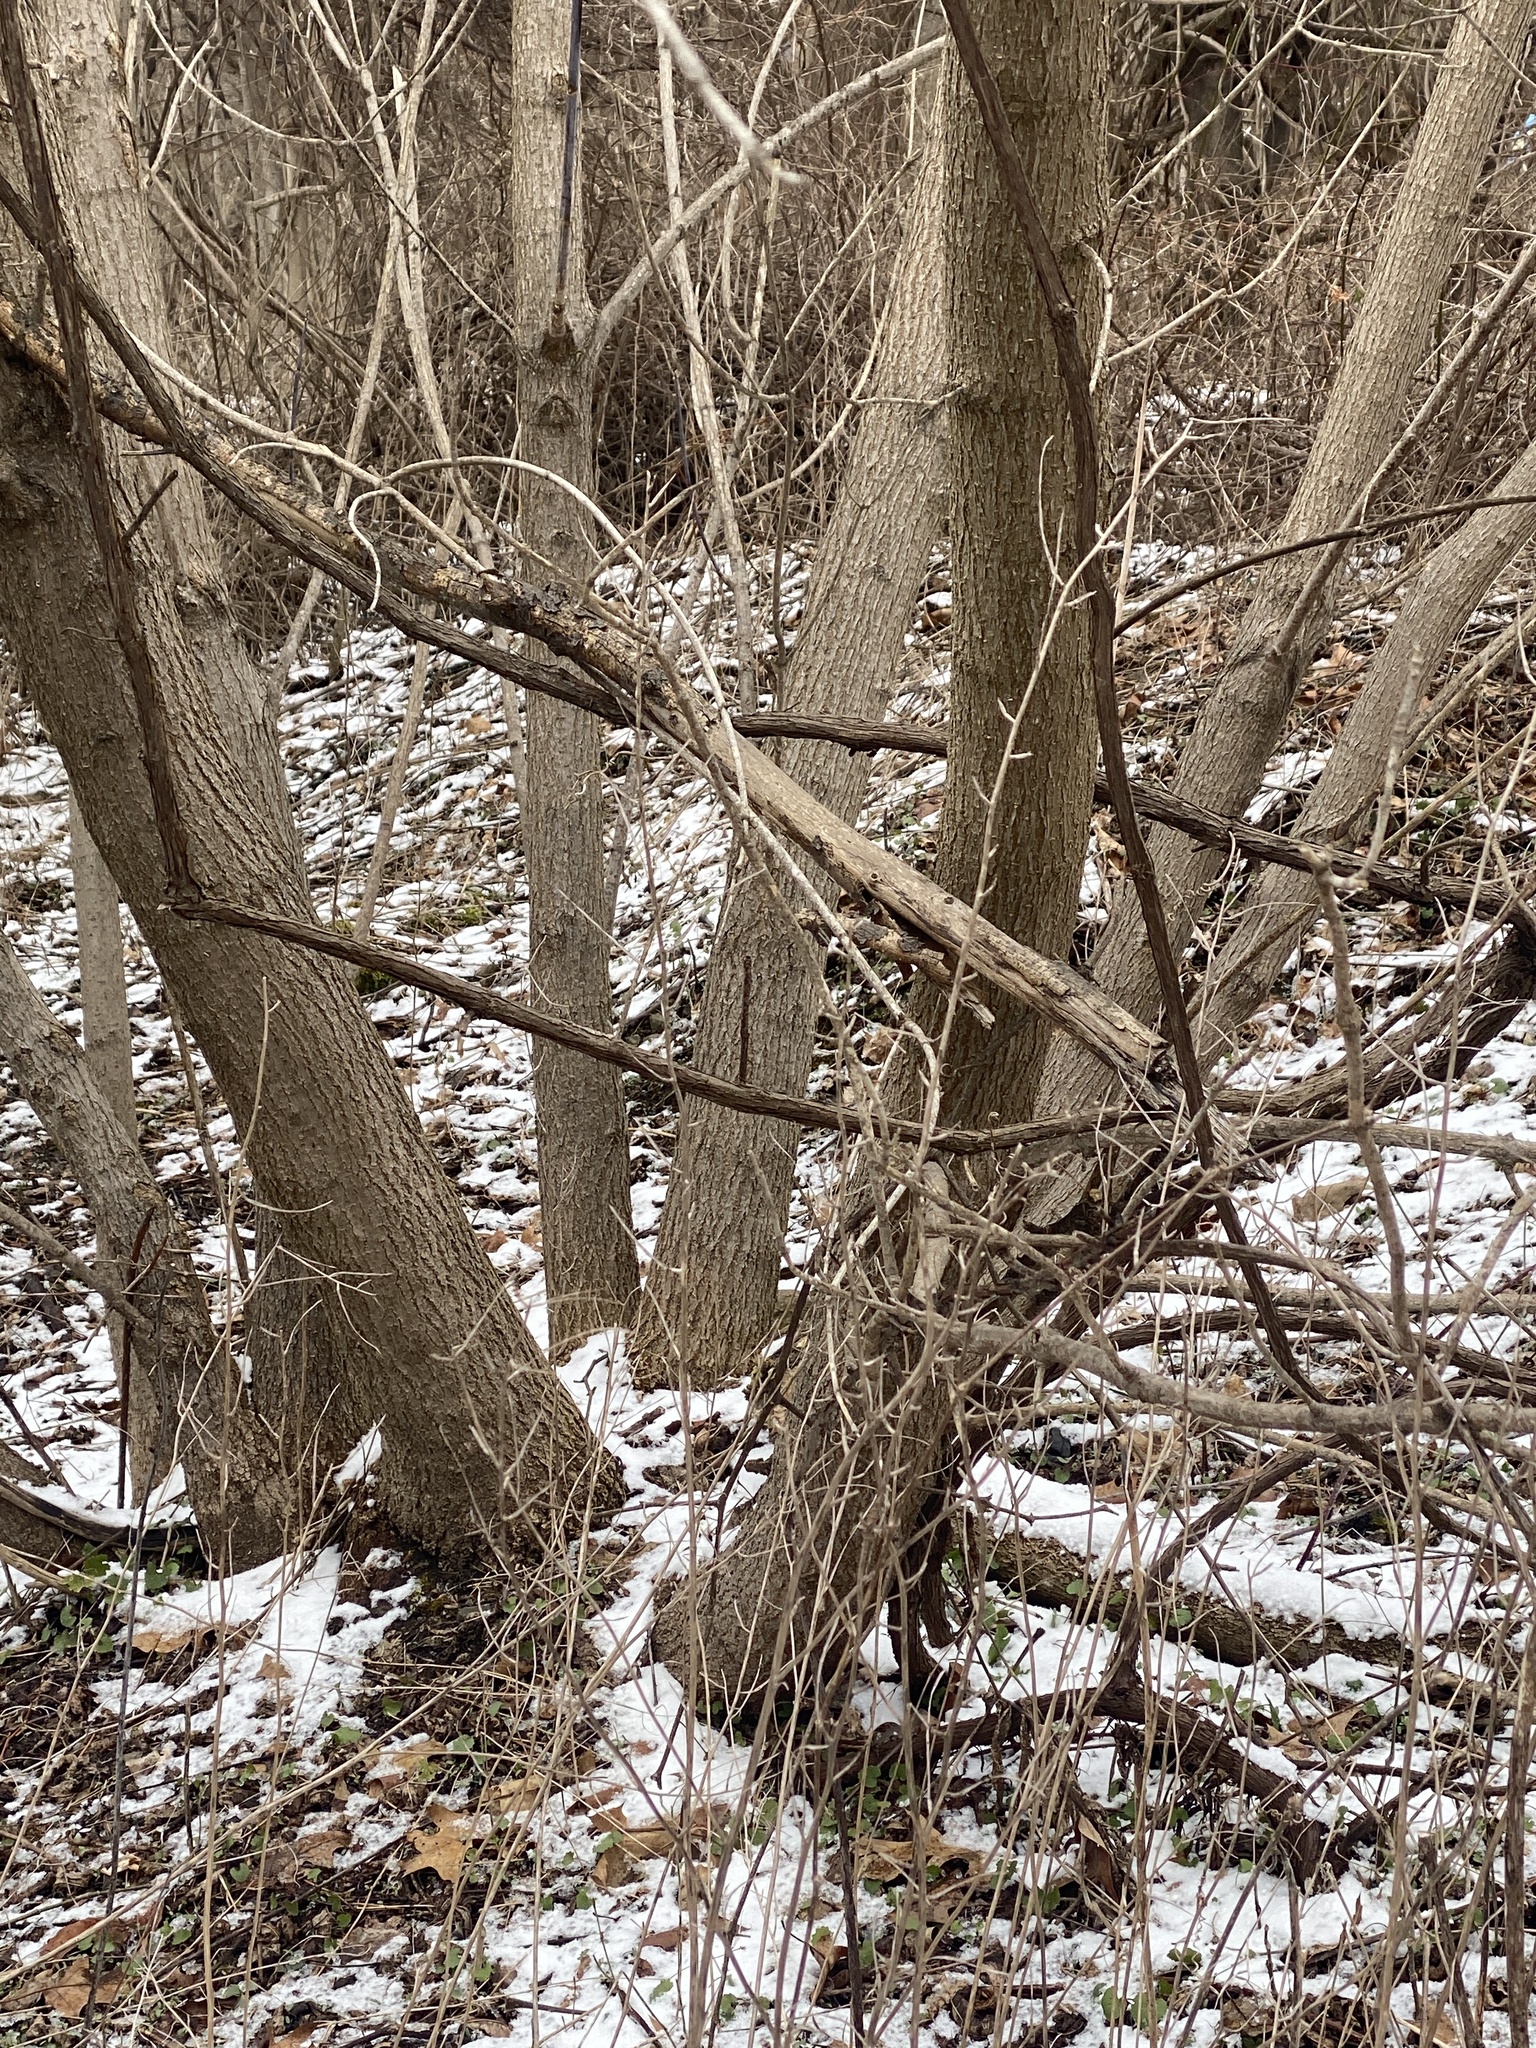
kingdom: Plantae
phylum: Tracheophyta
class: Magnoliopsida
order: Sapindales
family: Sapindaceae
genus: Acer
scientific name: Acer negundo
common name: Ashleaf maple
